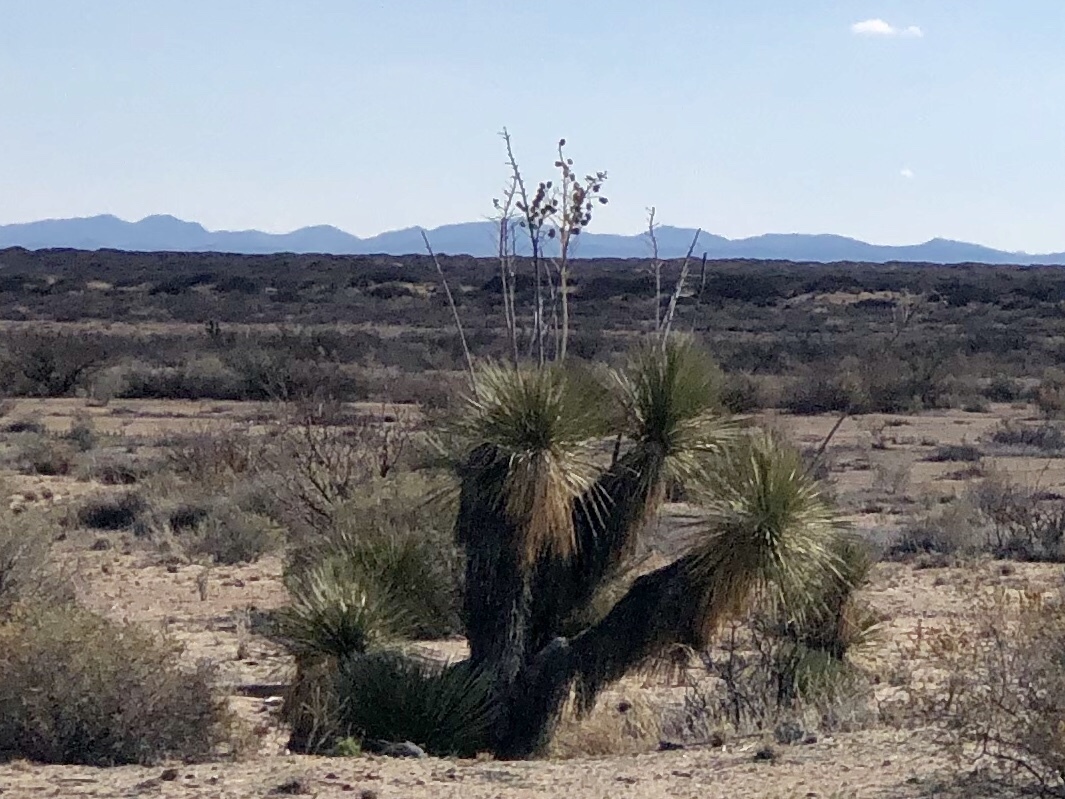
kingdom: Plantae
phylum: Tracheophyta
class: Liliopsida
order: Asparagales
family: Asparagaceae
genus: Yucca
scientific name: Yucca elata
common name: Palmella
